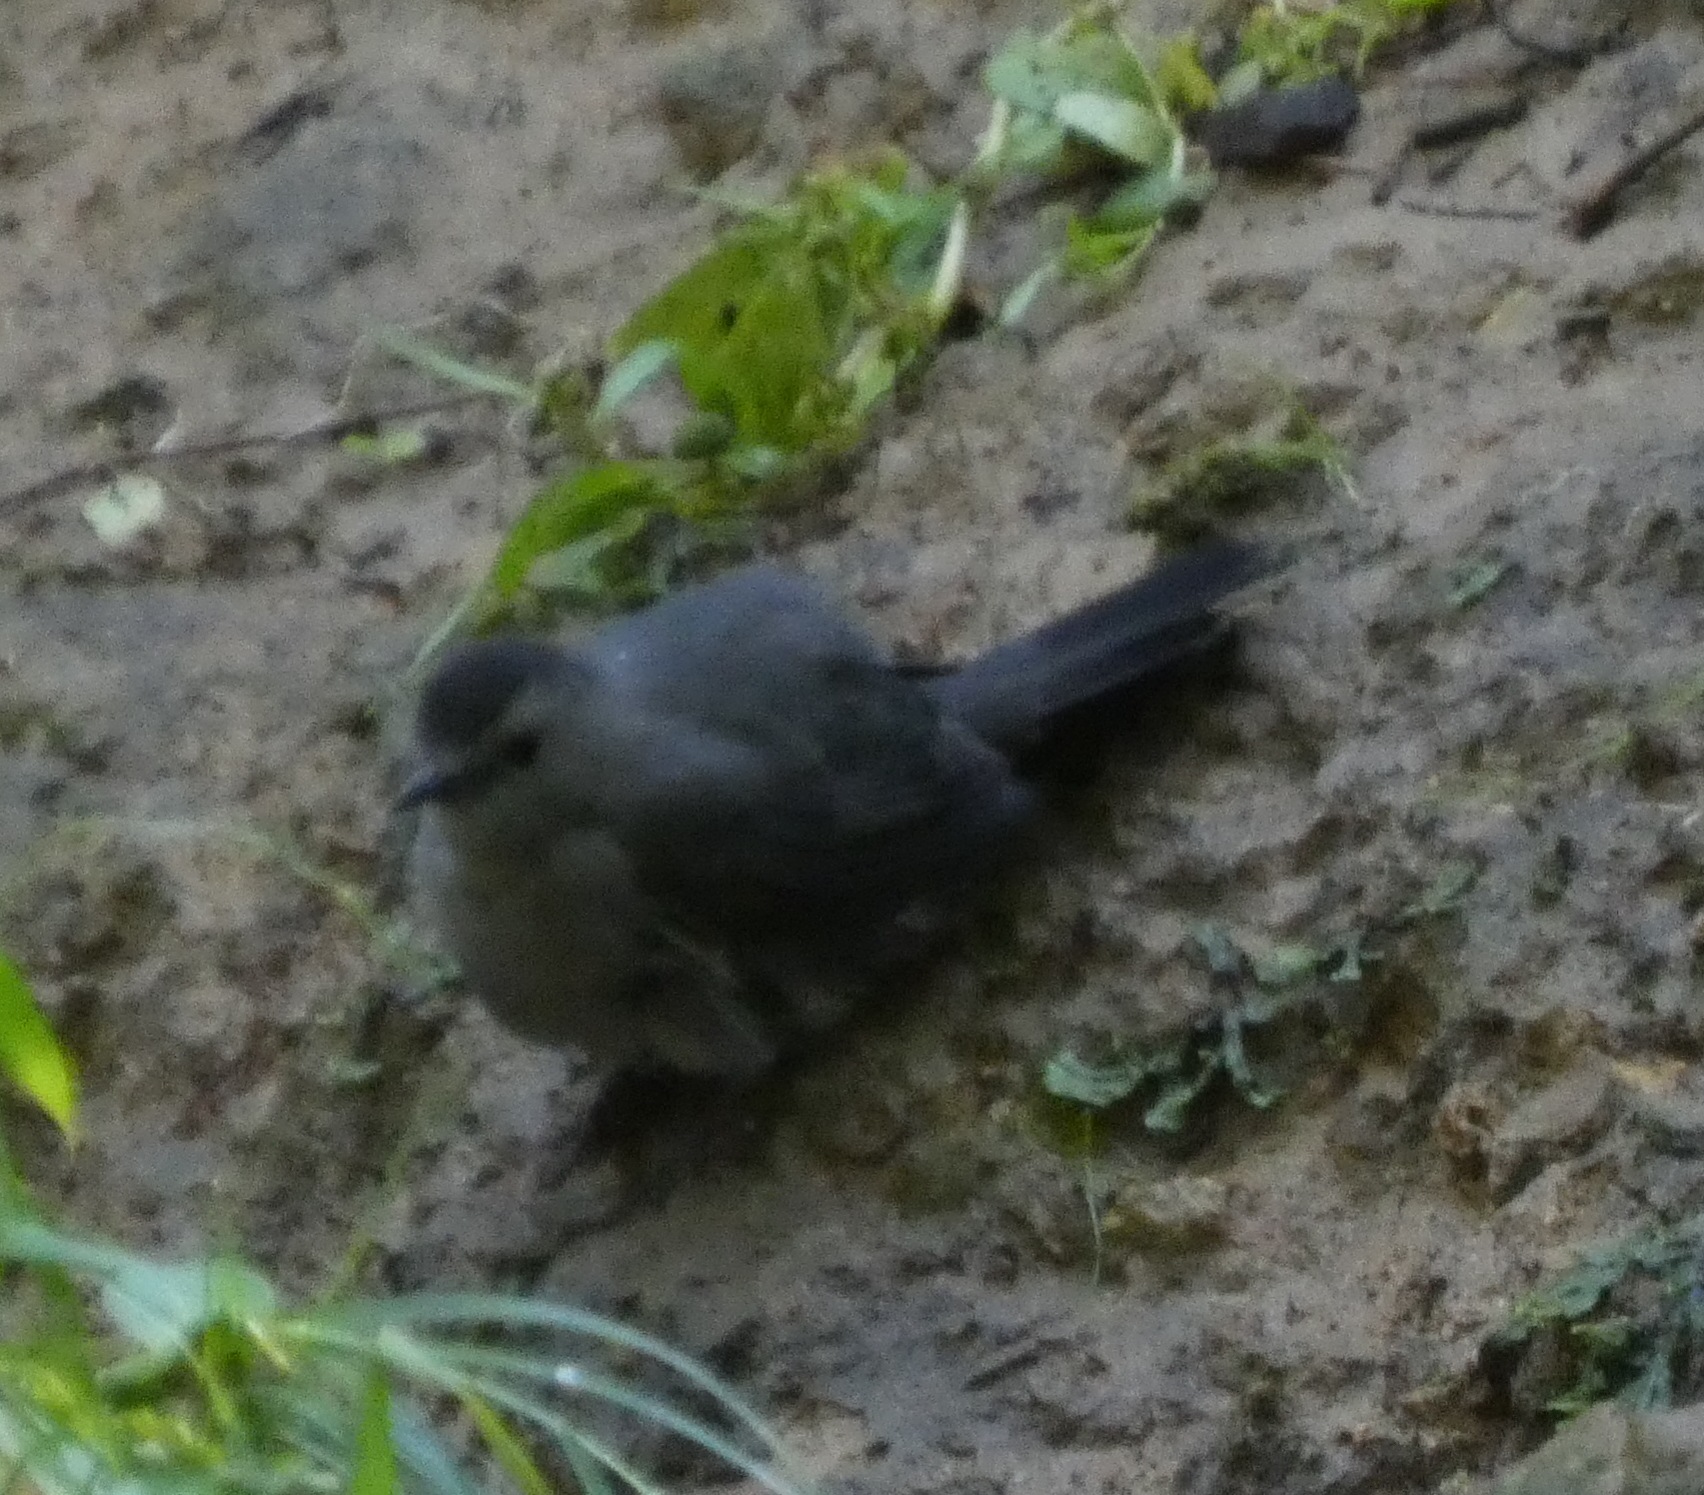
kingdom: Animalia
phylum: Chordata
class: Aves
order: Passeriformes
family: Mimidae
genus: Dumetella
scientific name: Dumetella carolinensis
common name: Gray catbird
